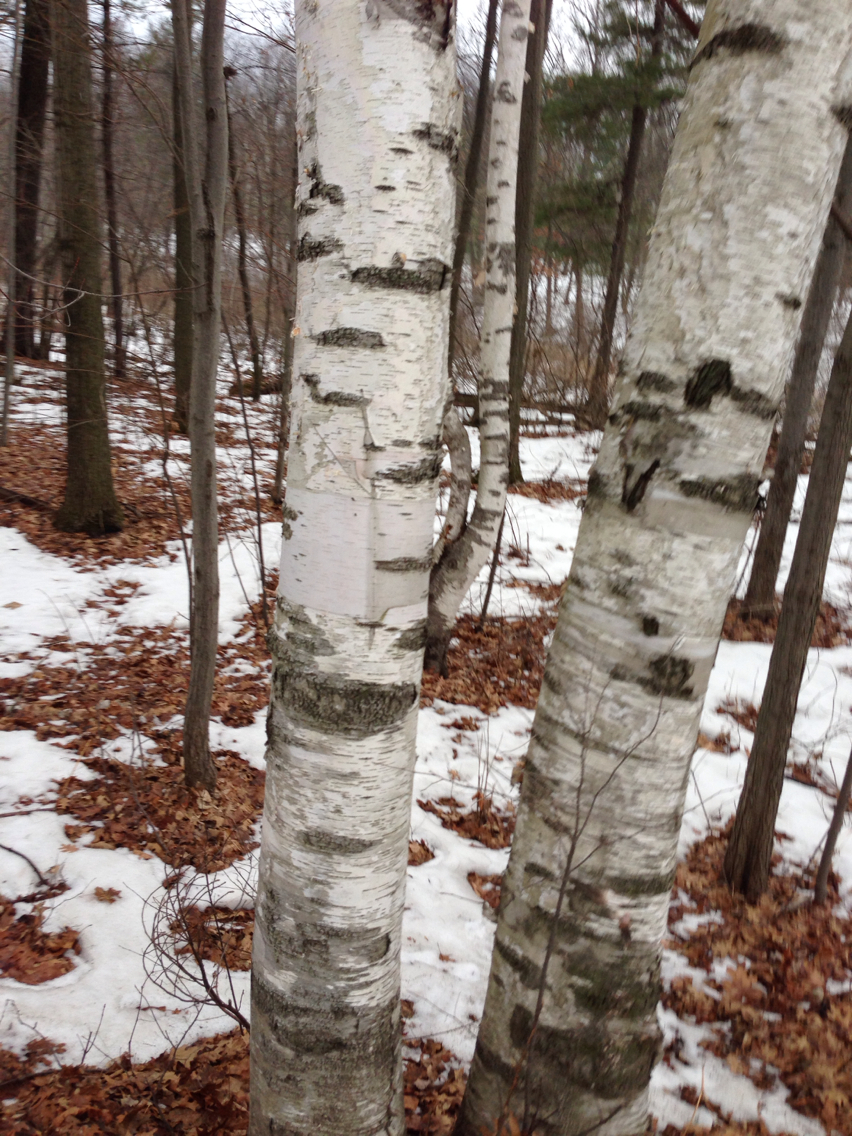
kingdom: Plantae
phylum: Tracheophyta
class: Magnoliopsida
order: Fagales
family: Betulaceae
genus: Betula
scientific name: Betula papyrifera
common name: Paper birch
